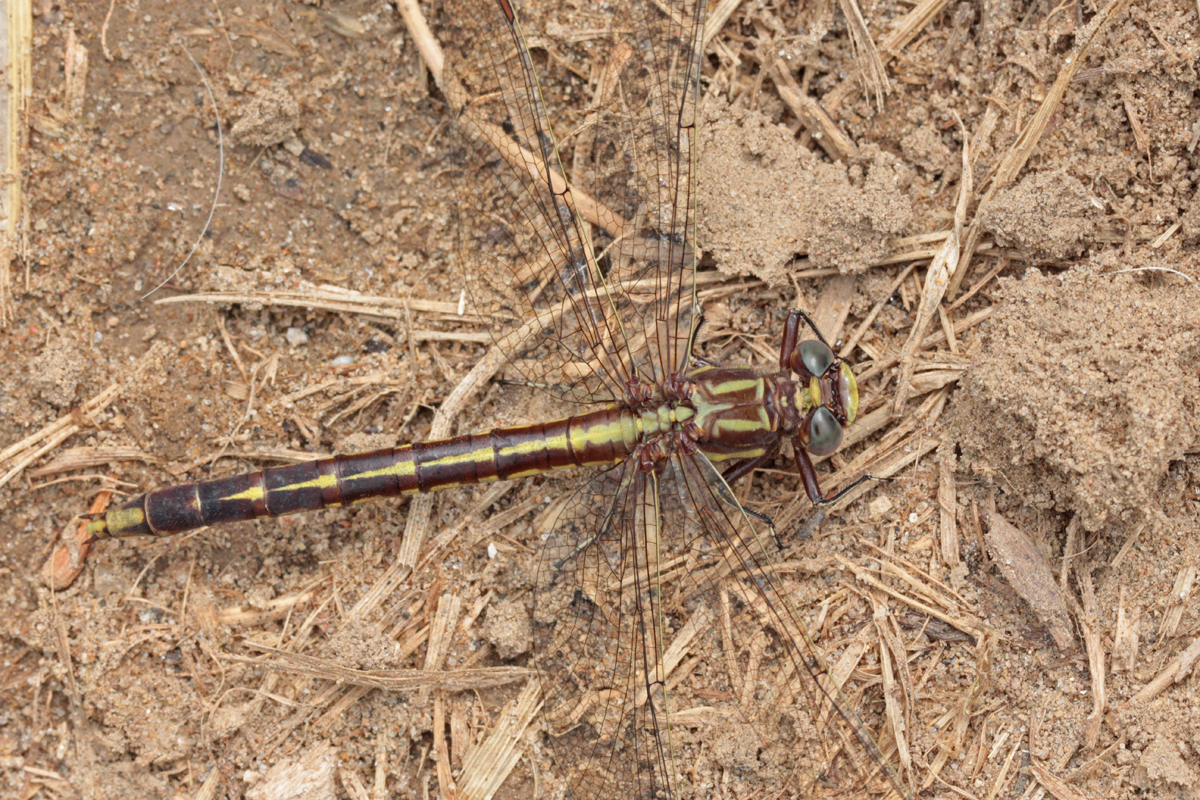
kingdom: Animalia
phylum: Arthropoda
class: Insecta
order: Odonata
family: Gomphidae
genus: Phanogomphus
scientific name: Phanogomphus lividus
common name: Ashy clubtail
